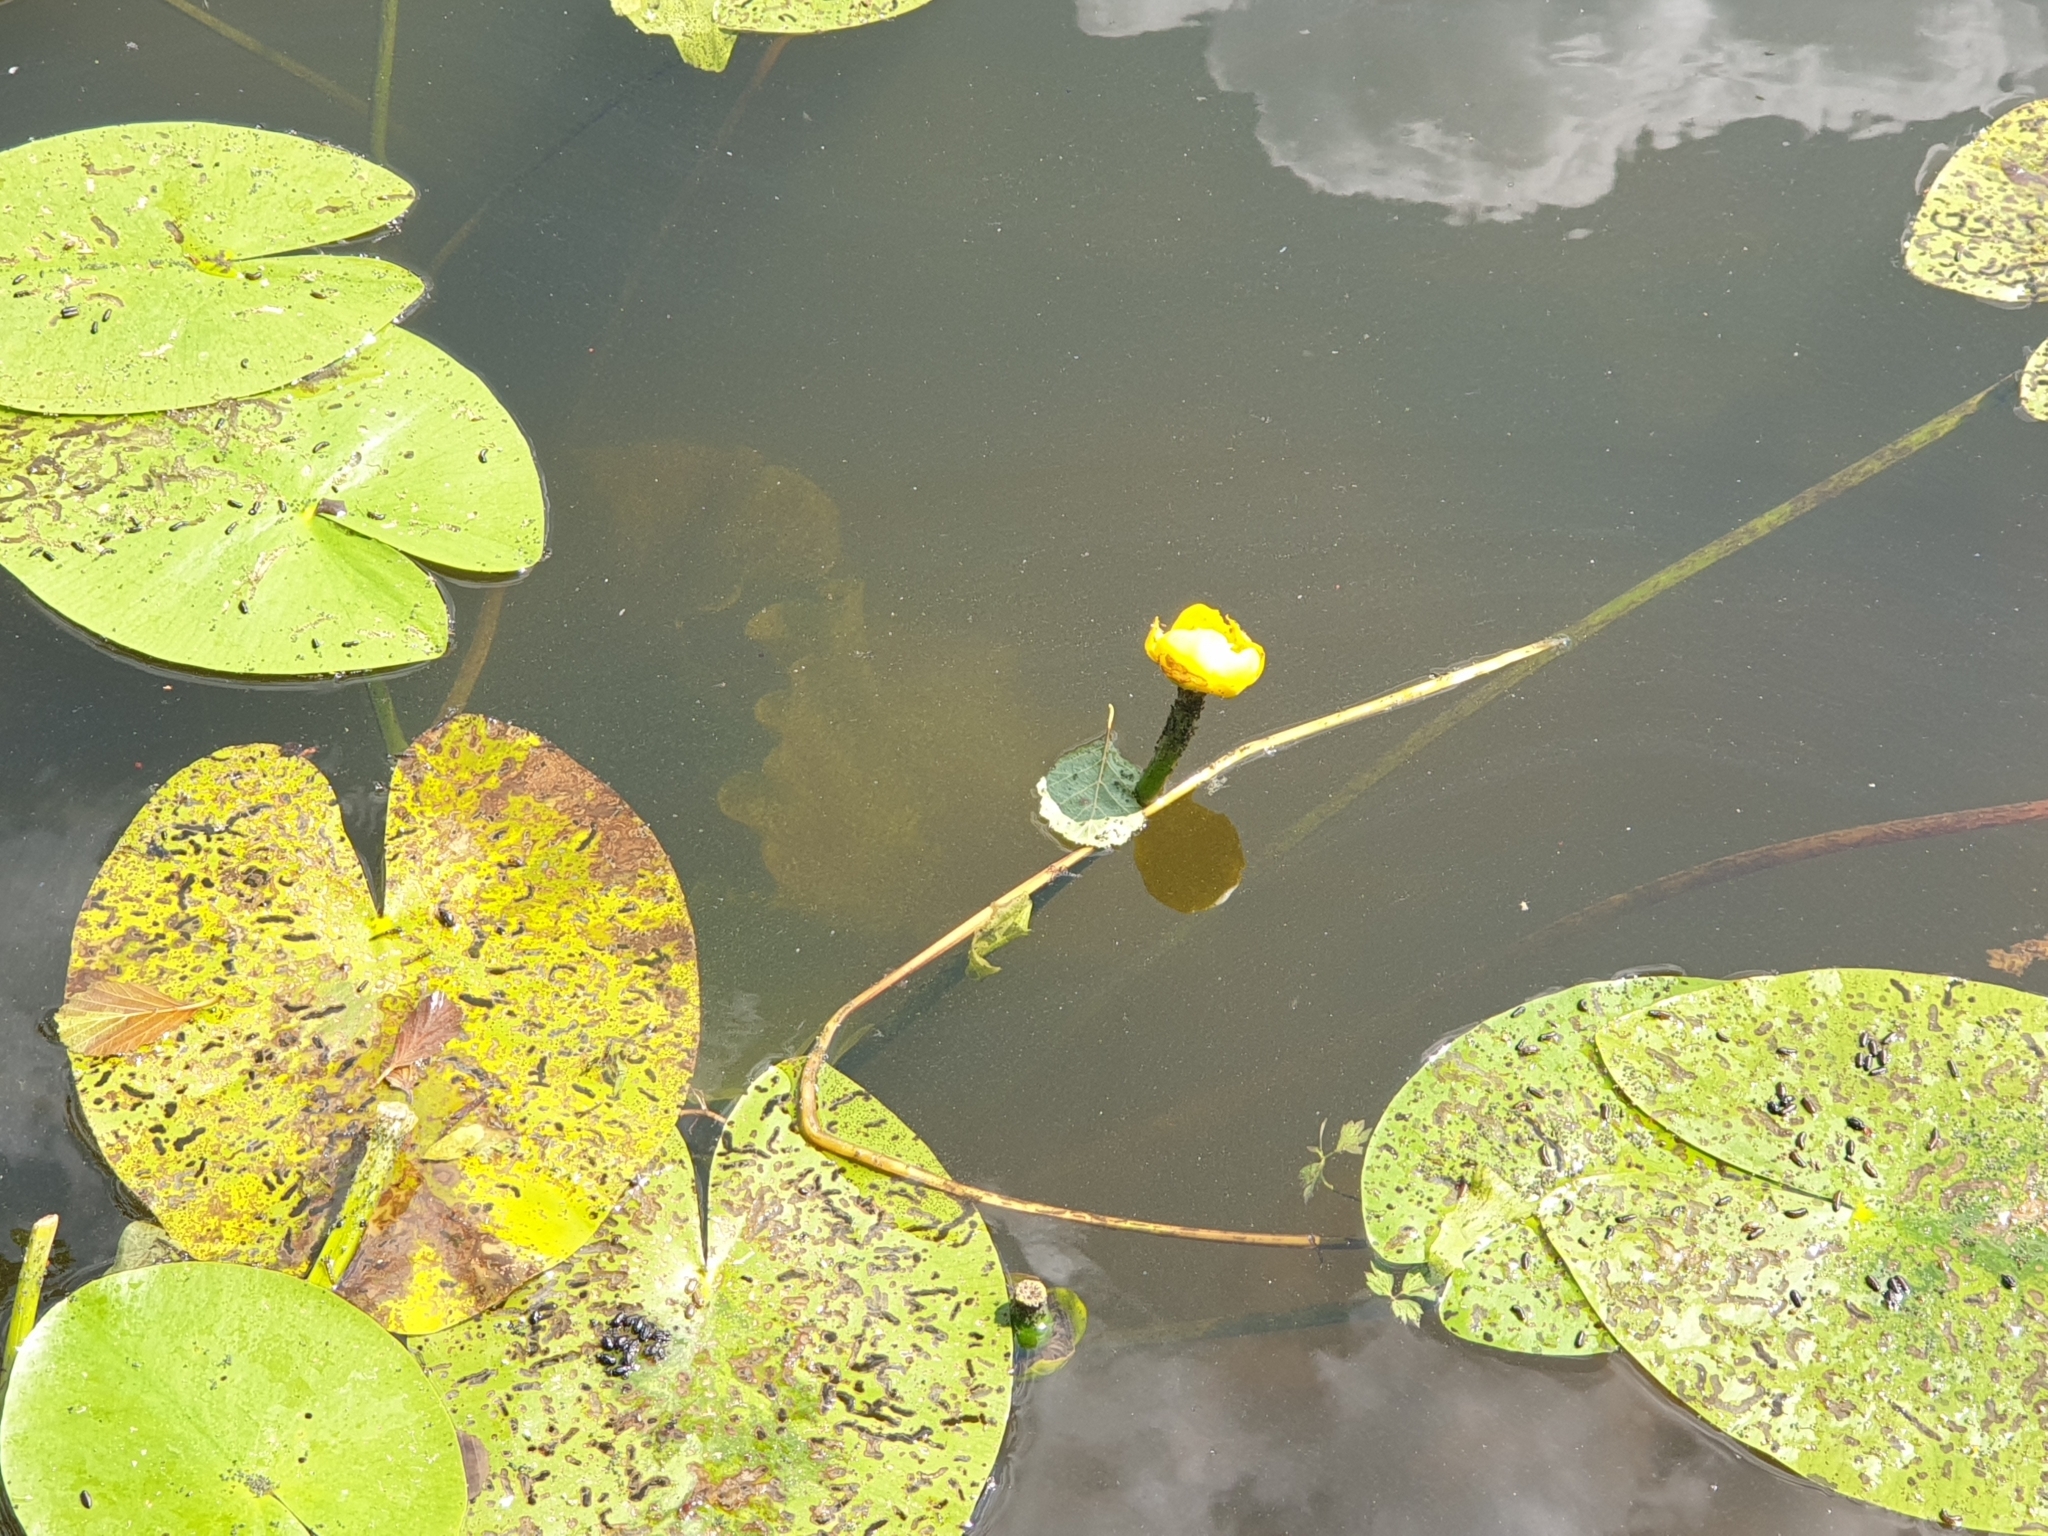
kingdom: Plantae
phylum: Tracheophyta
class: Magnoliopsida
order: Nymphaeales
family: Nymphaeaceae
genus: Nuphar
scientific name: Nuphar lutea
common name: Yellow water-lily
